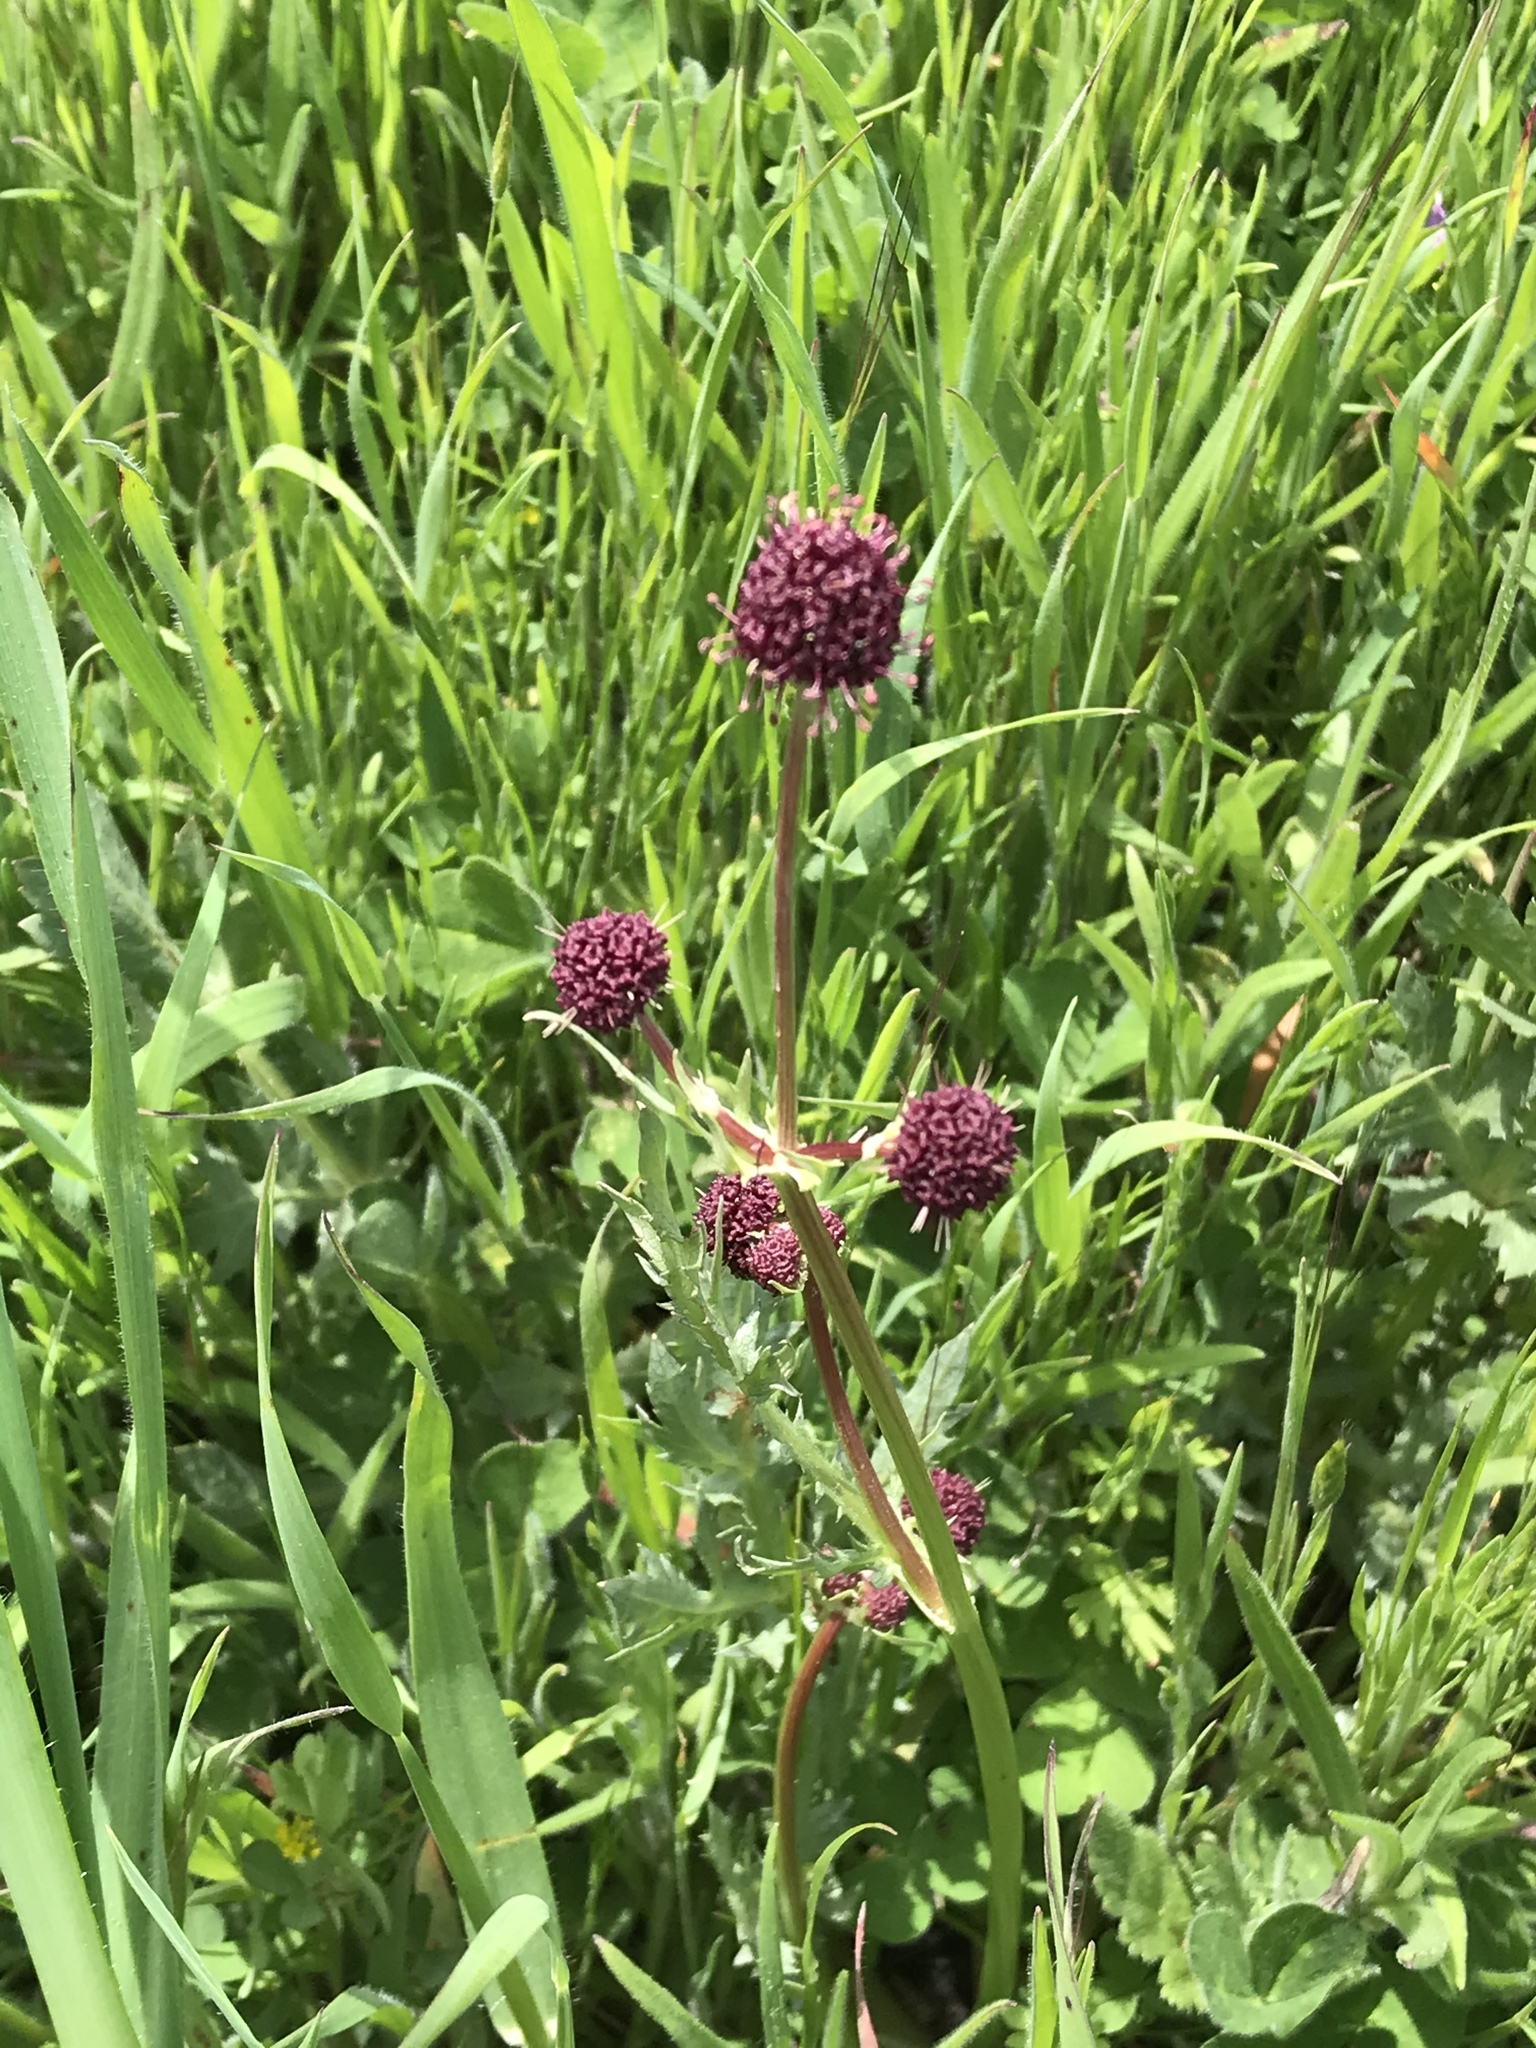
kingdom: Plantae
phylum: Tracheophyta
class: Magnoliopsida
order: Apiales
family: Apiaceae
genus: Sanicula
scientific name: Sanicula bipinnatifida
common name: Shoe-buttons
